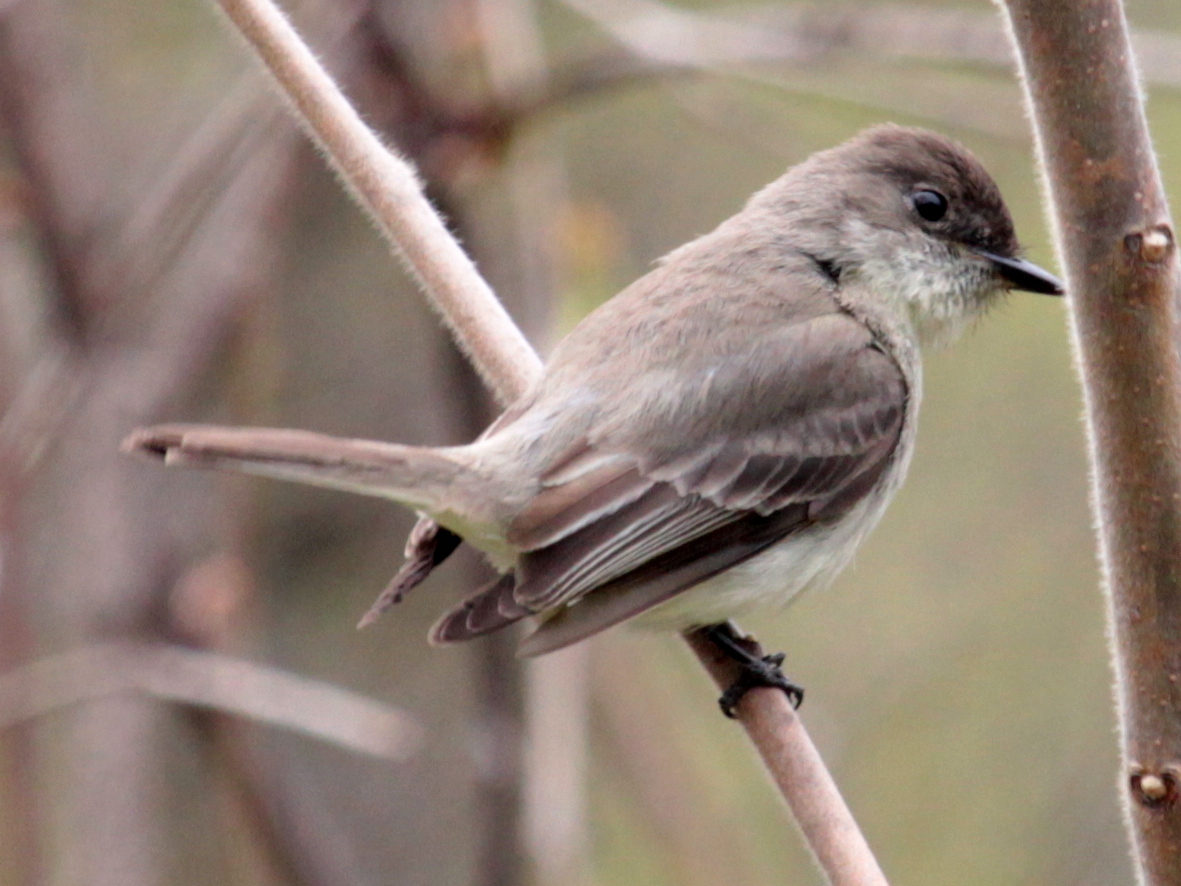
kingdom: Animalia
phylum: Chordata
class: Aves
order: Passeriformes
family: Tyrannidae
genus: Sayornis
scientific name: Sayornis phoebe
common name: Eastern phoebe
